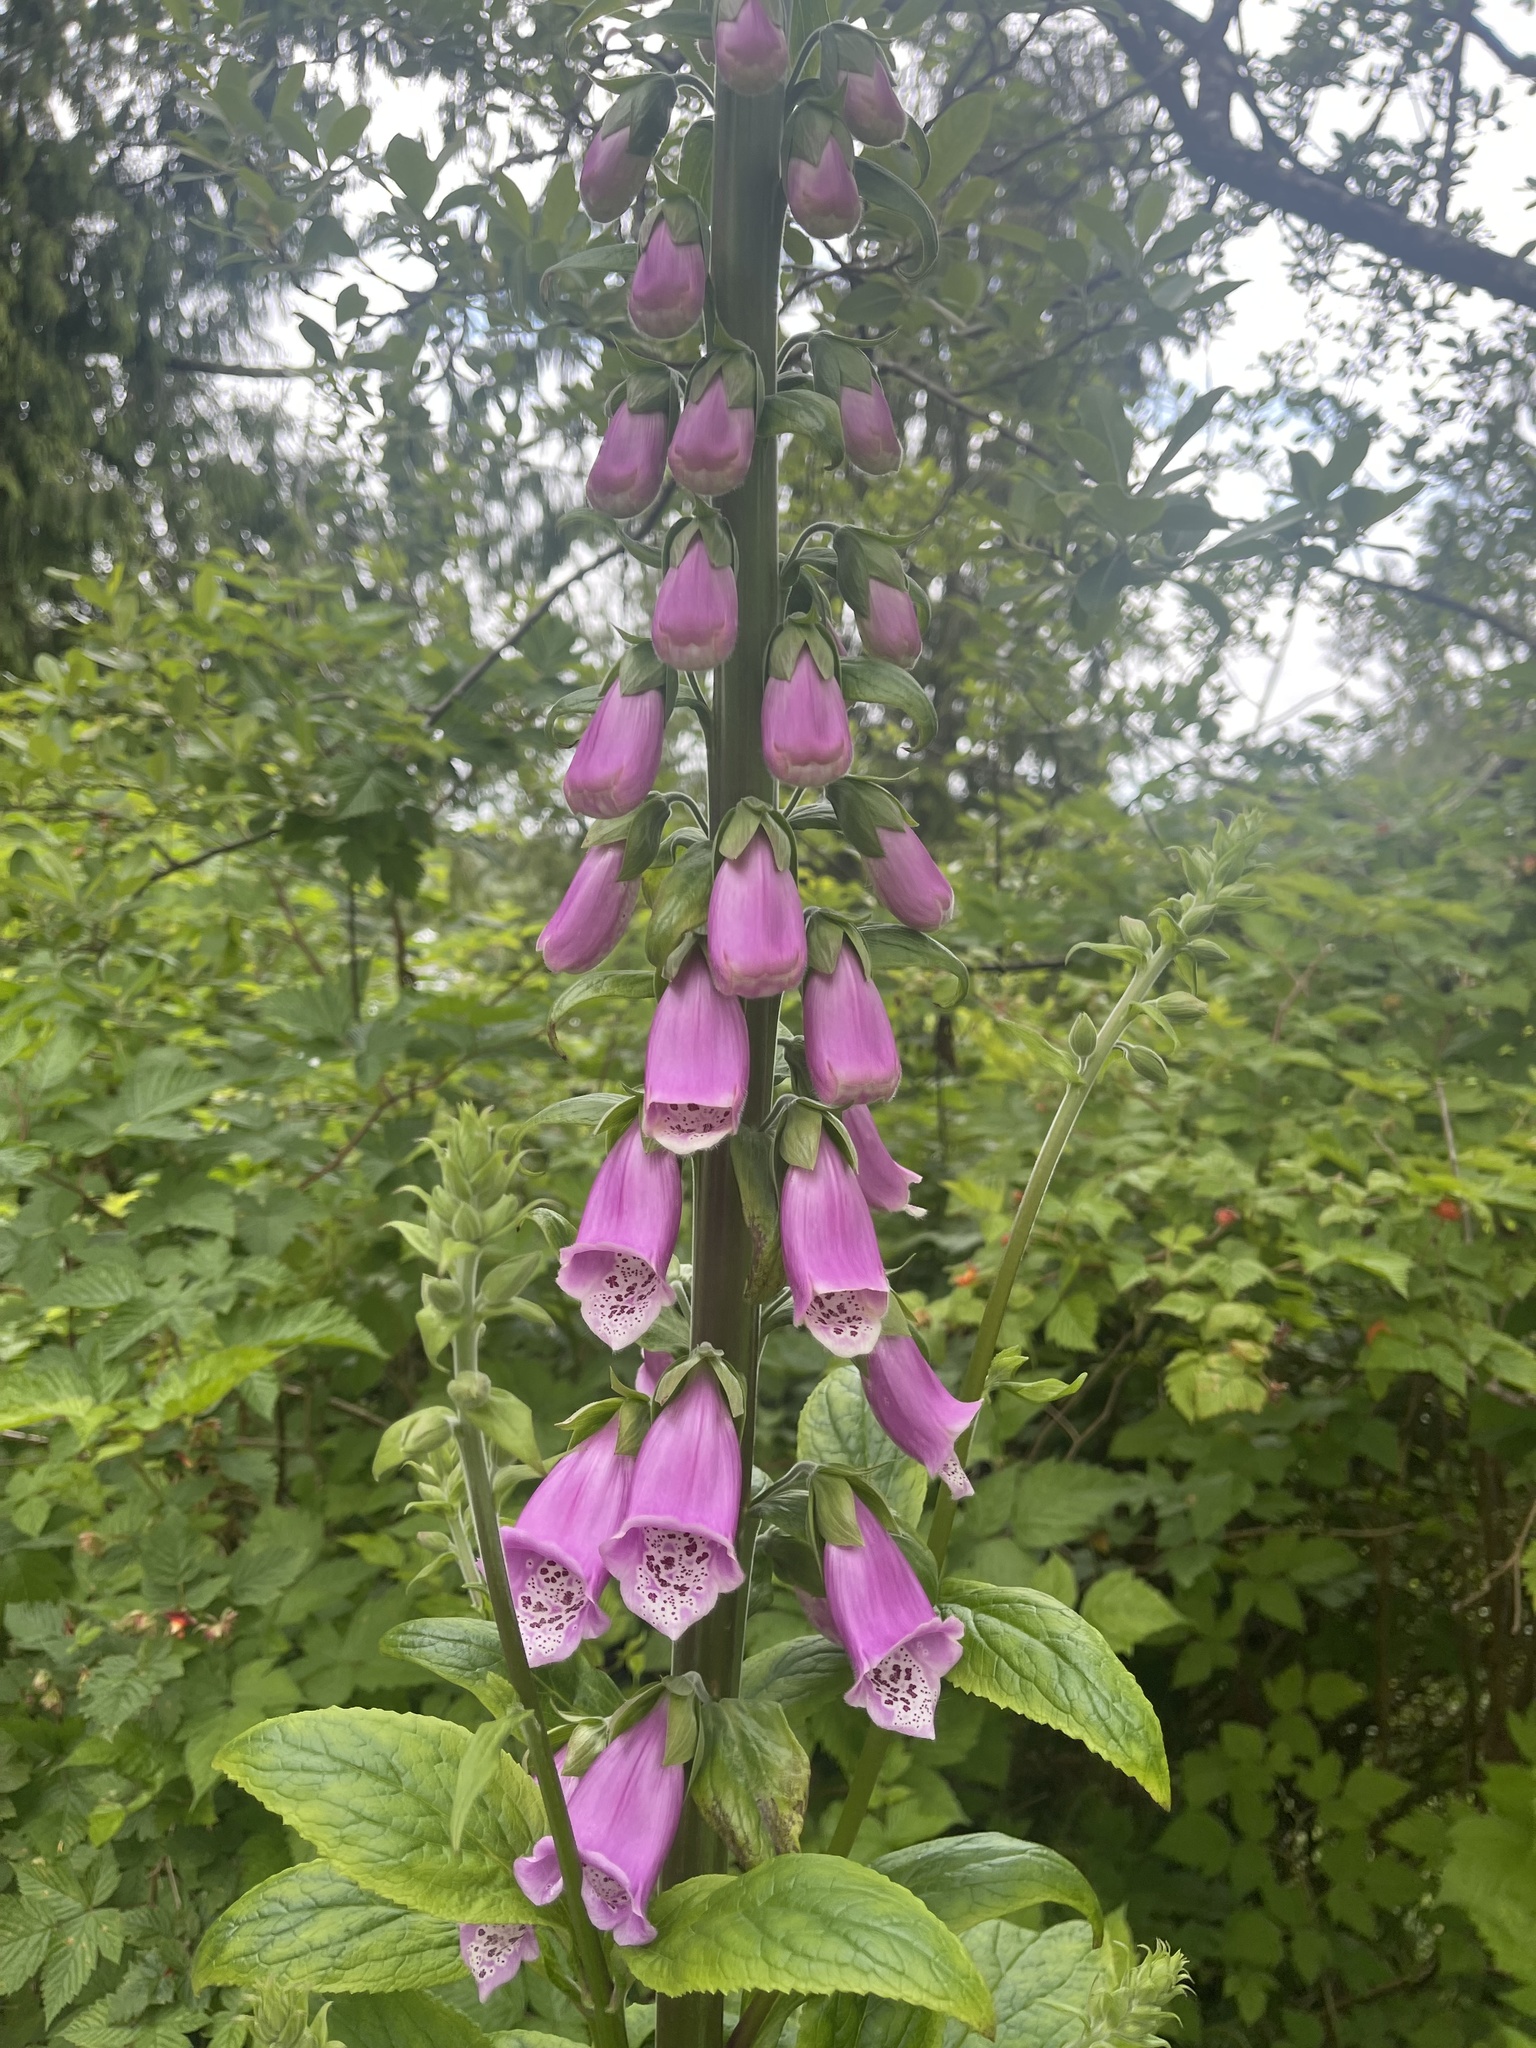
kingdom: Plantae
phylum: Tracheophyta
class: Magnoliopsida
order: Lamiales
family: Plantaginaceae
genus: Digitalis
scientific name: Digitalis purpurea
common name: Foxglove
